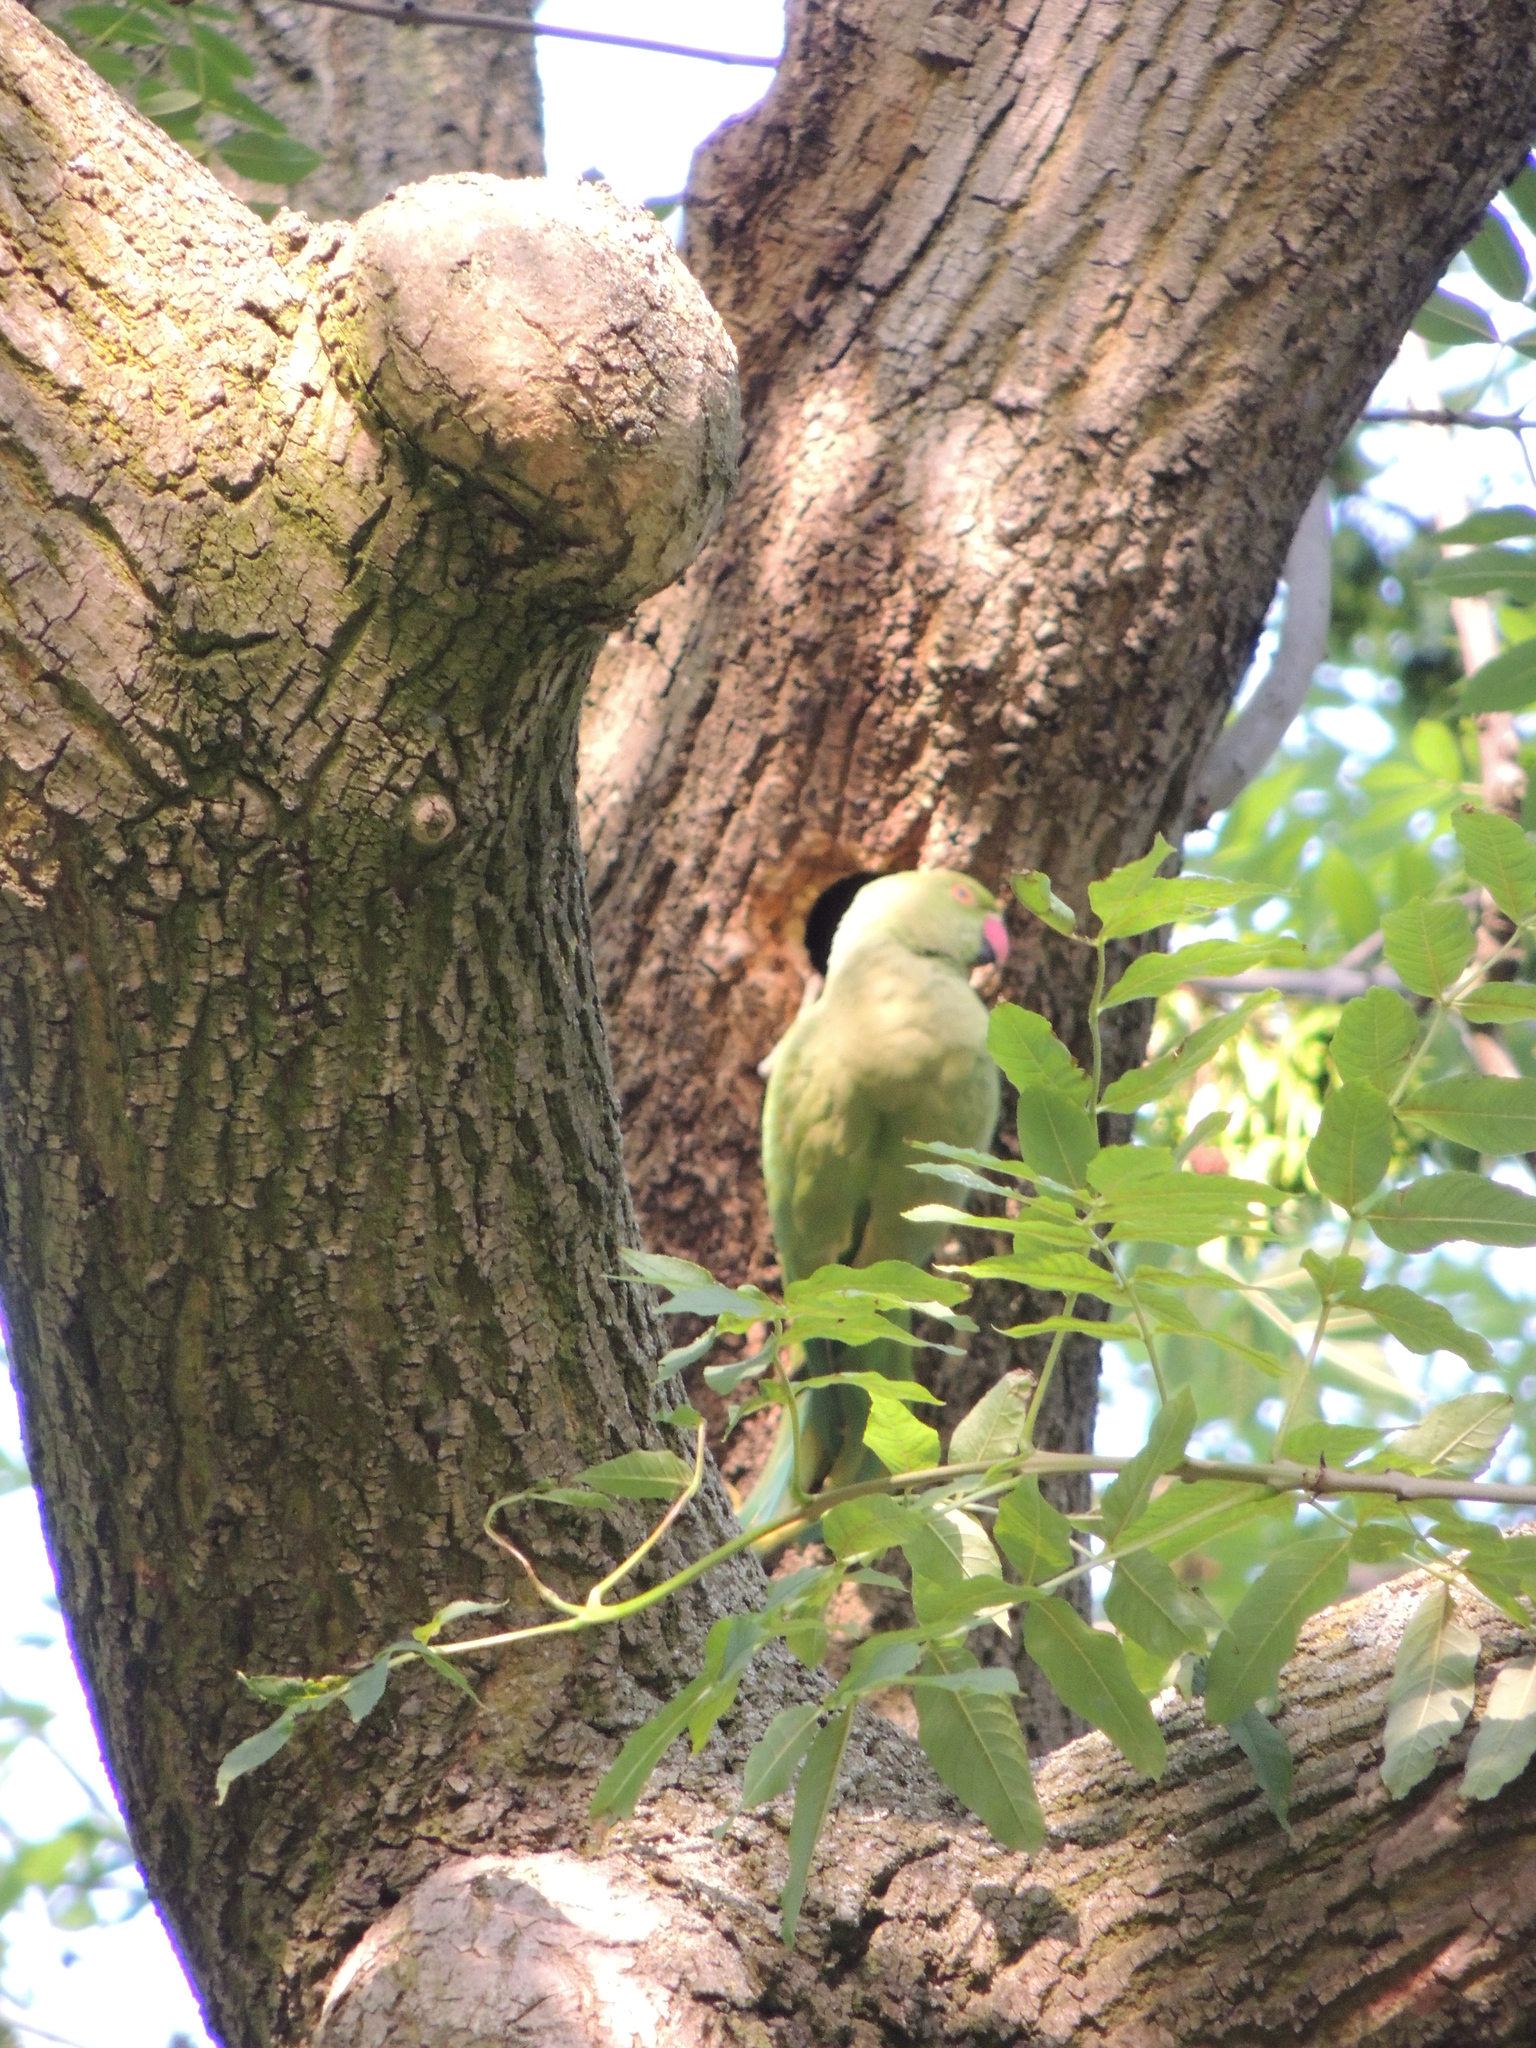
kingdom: Animalia
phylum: Chordata
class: Aves
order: Psittaciformes
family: Psittacidae
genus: Psittacula
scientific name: Psittacula krameri
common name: Rose-ringed parakeet
